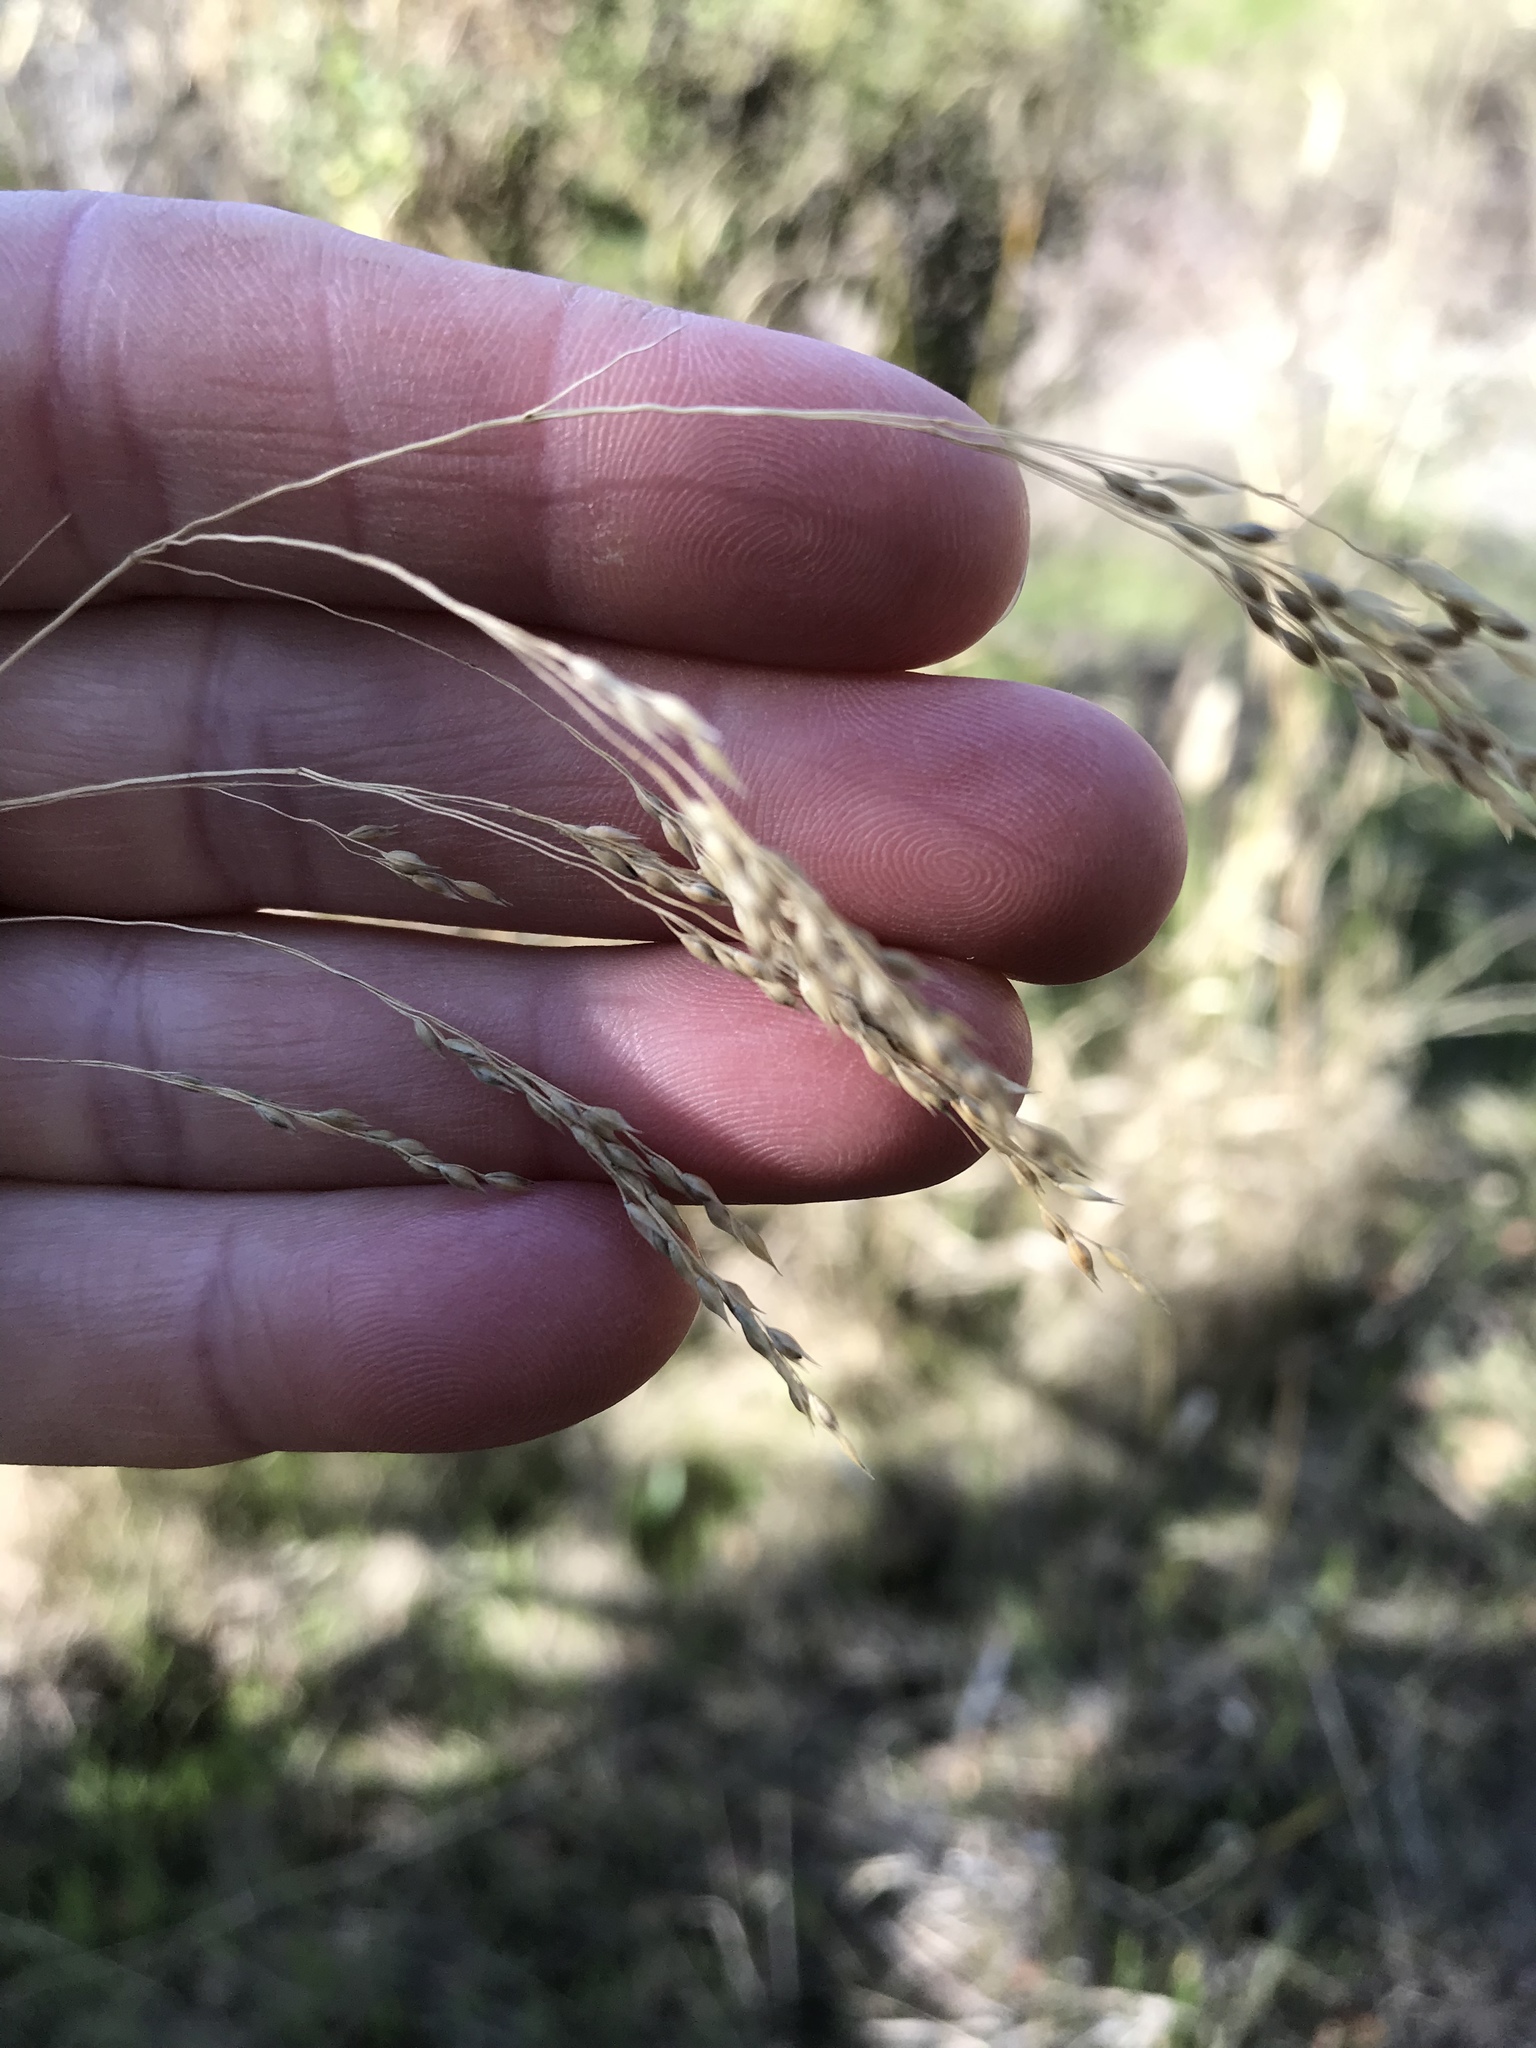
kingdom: Plantae
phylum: Tracheophyta
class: Liliopsida
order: Poales
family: Poaceae
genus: Oloptum
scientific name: Oloptum miliaceum
